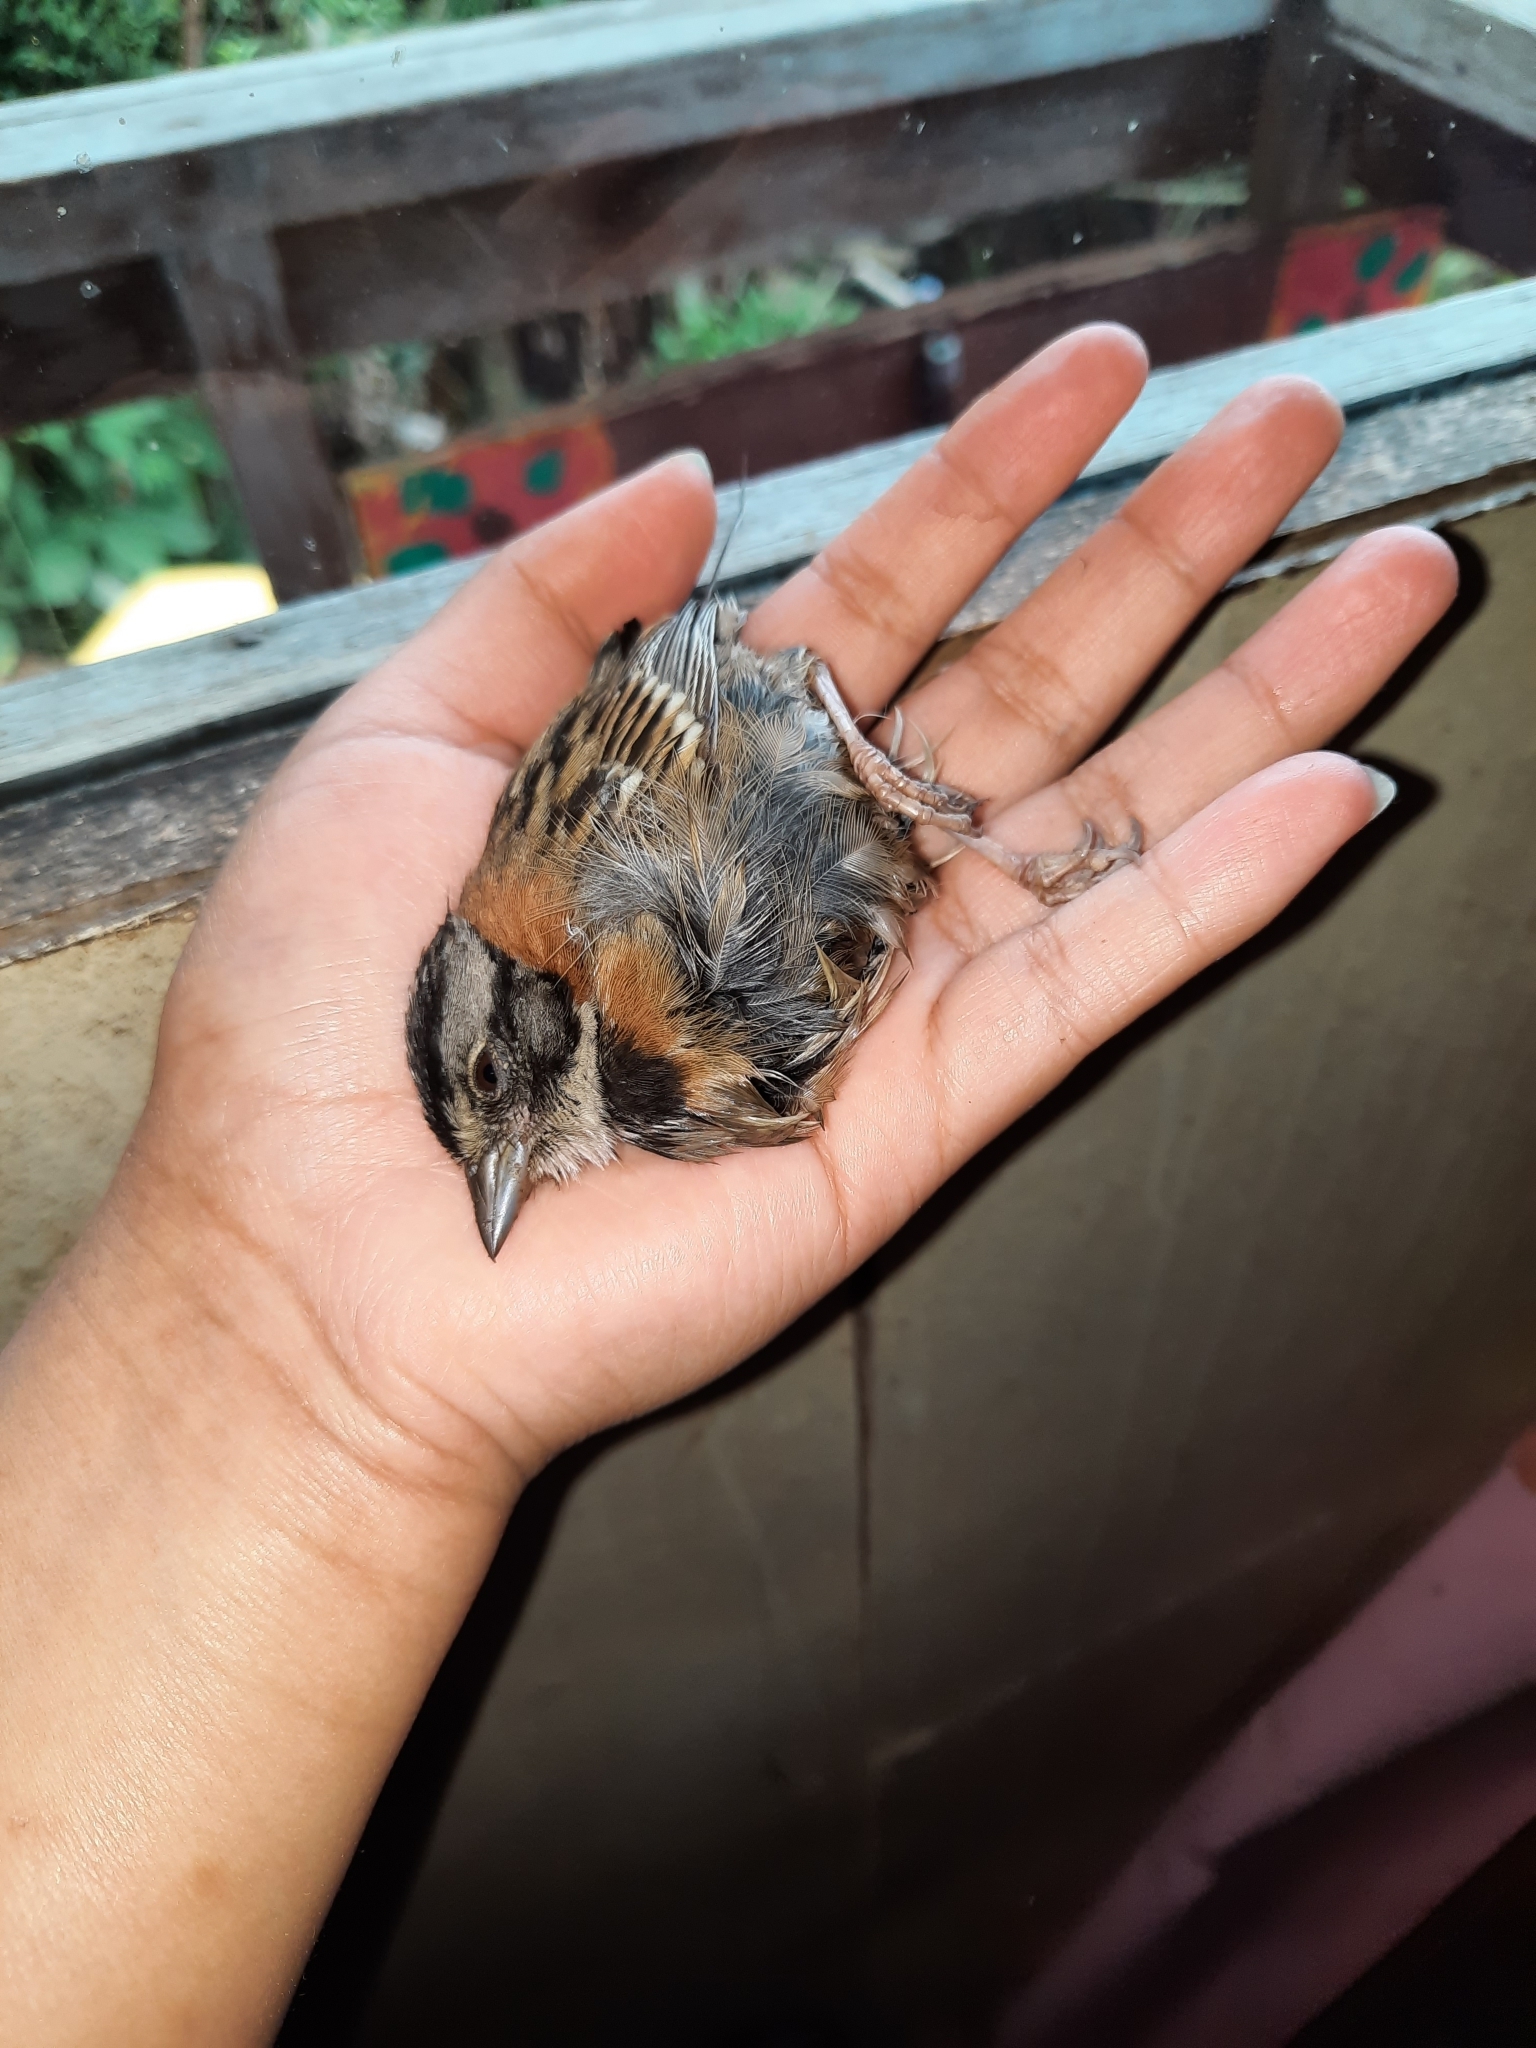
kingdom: Animalia
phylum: Chordata
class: Aves
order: Passeriformes
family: Passerellidae
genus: Zonotrichia
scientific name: Zonotrichia capensis
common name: Rufous-collared sparrow
